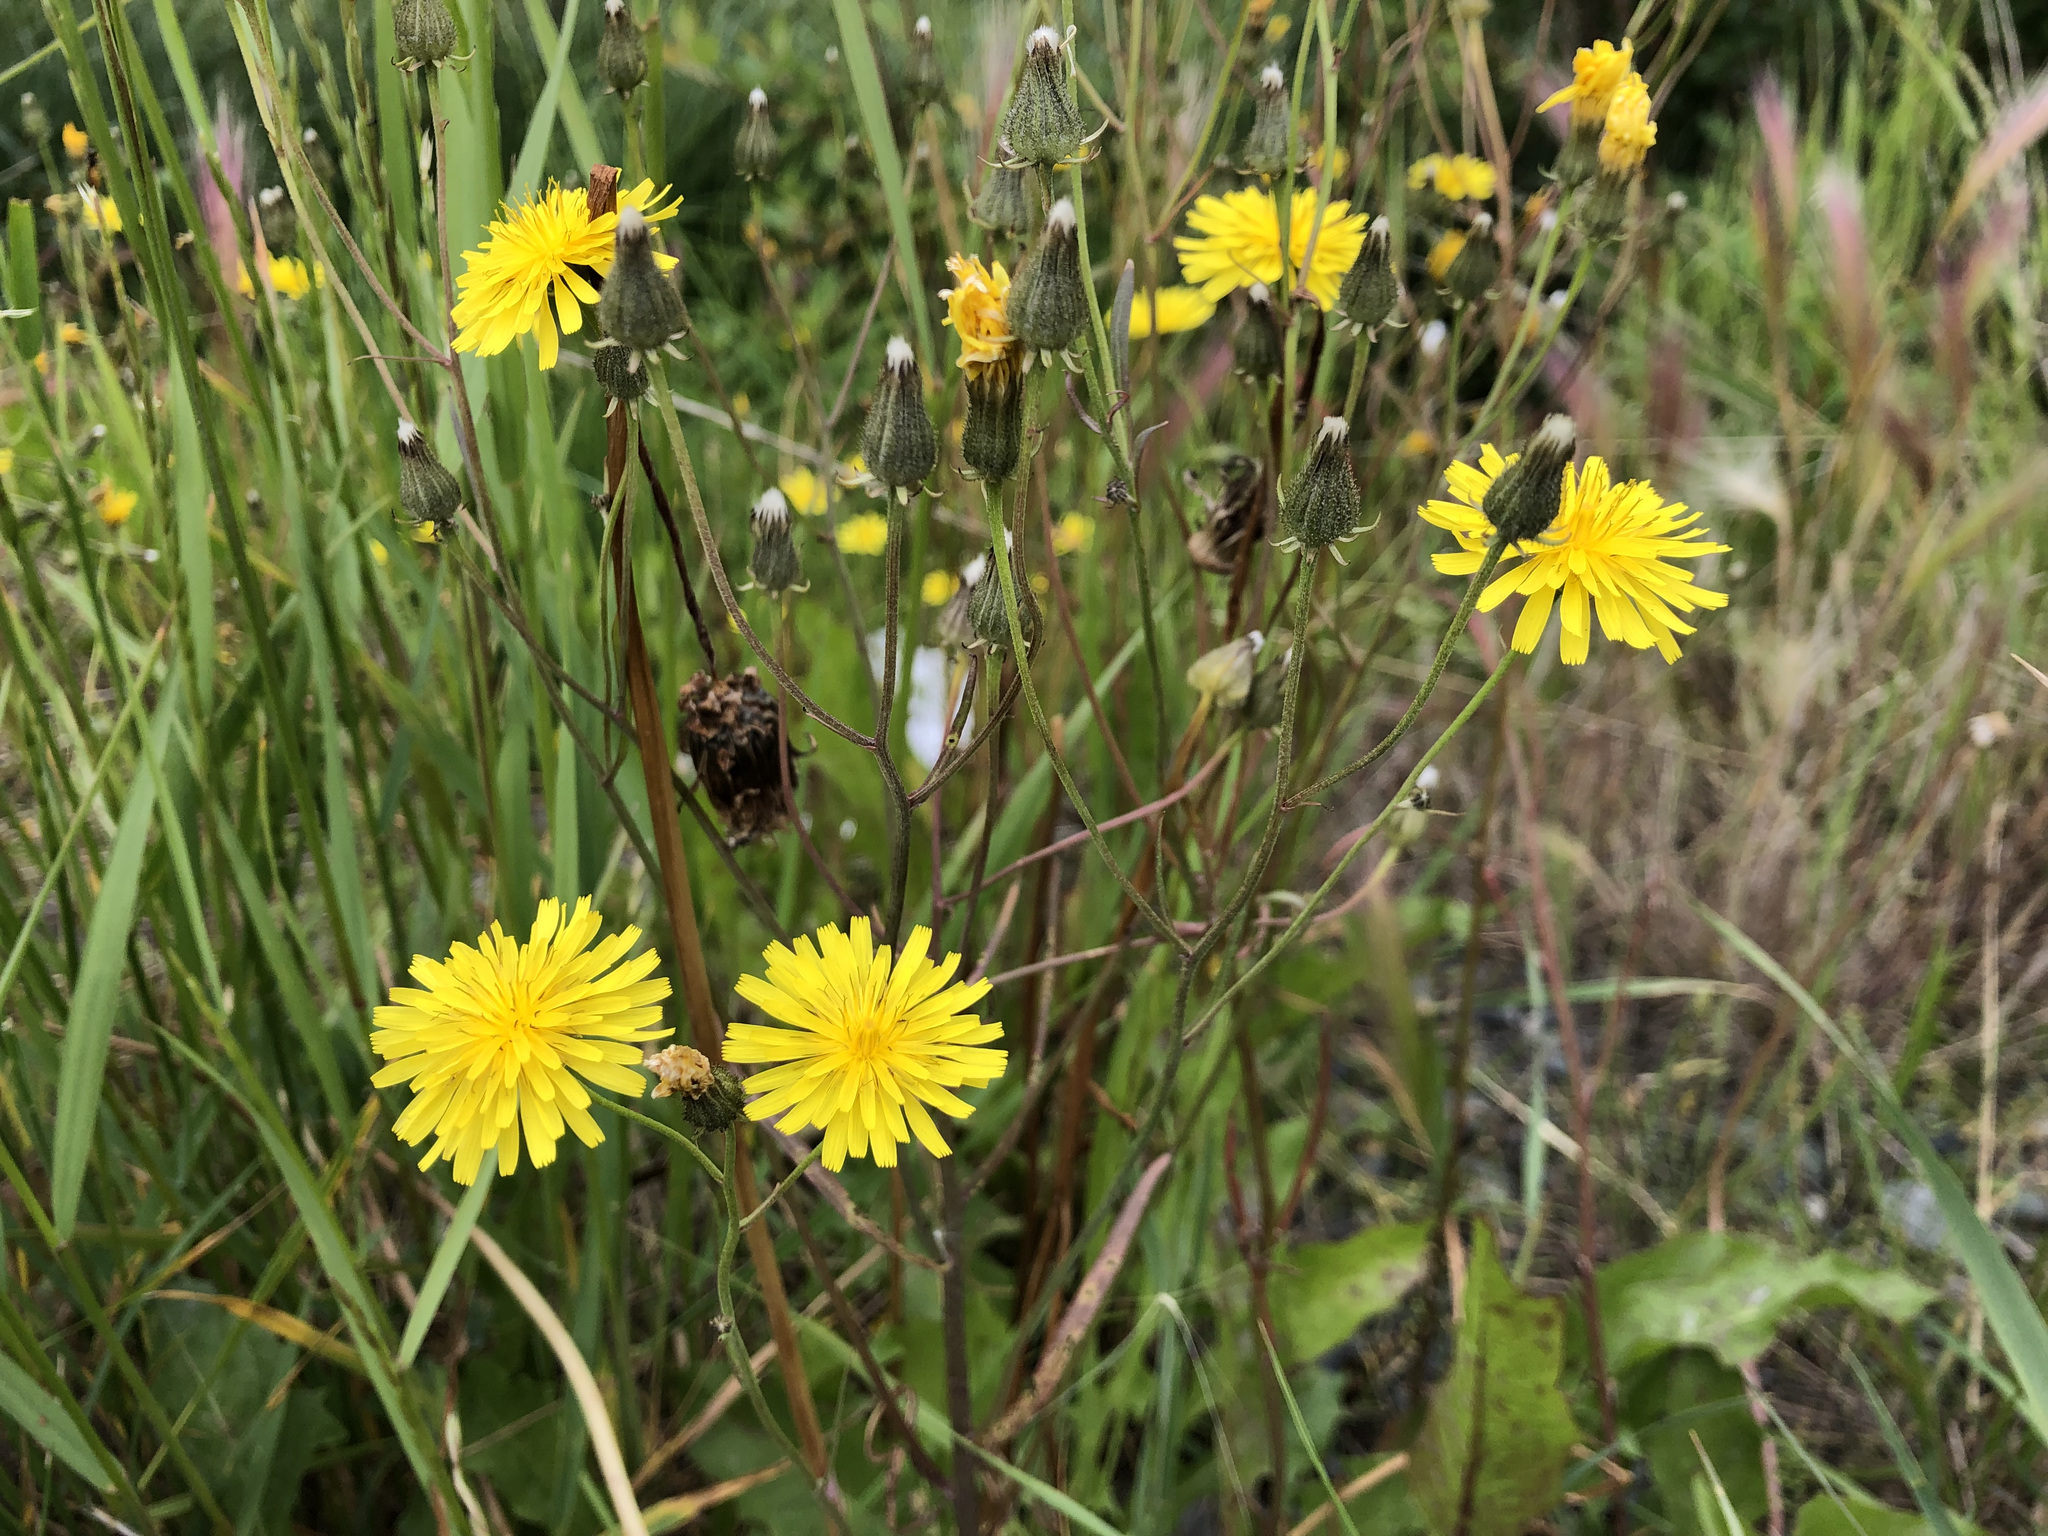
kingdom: Plantae
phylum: Tracheophyta
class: Magnoliopsida
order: Asterales
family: Asteraceae
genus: Crepis
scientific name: Crepis tectorum
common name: Narrow-leaved hawk's-beard
